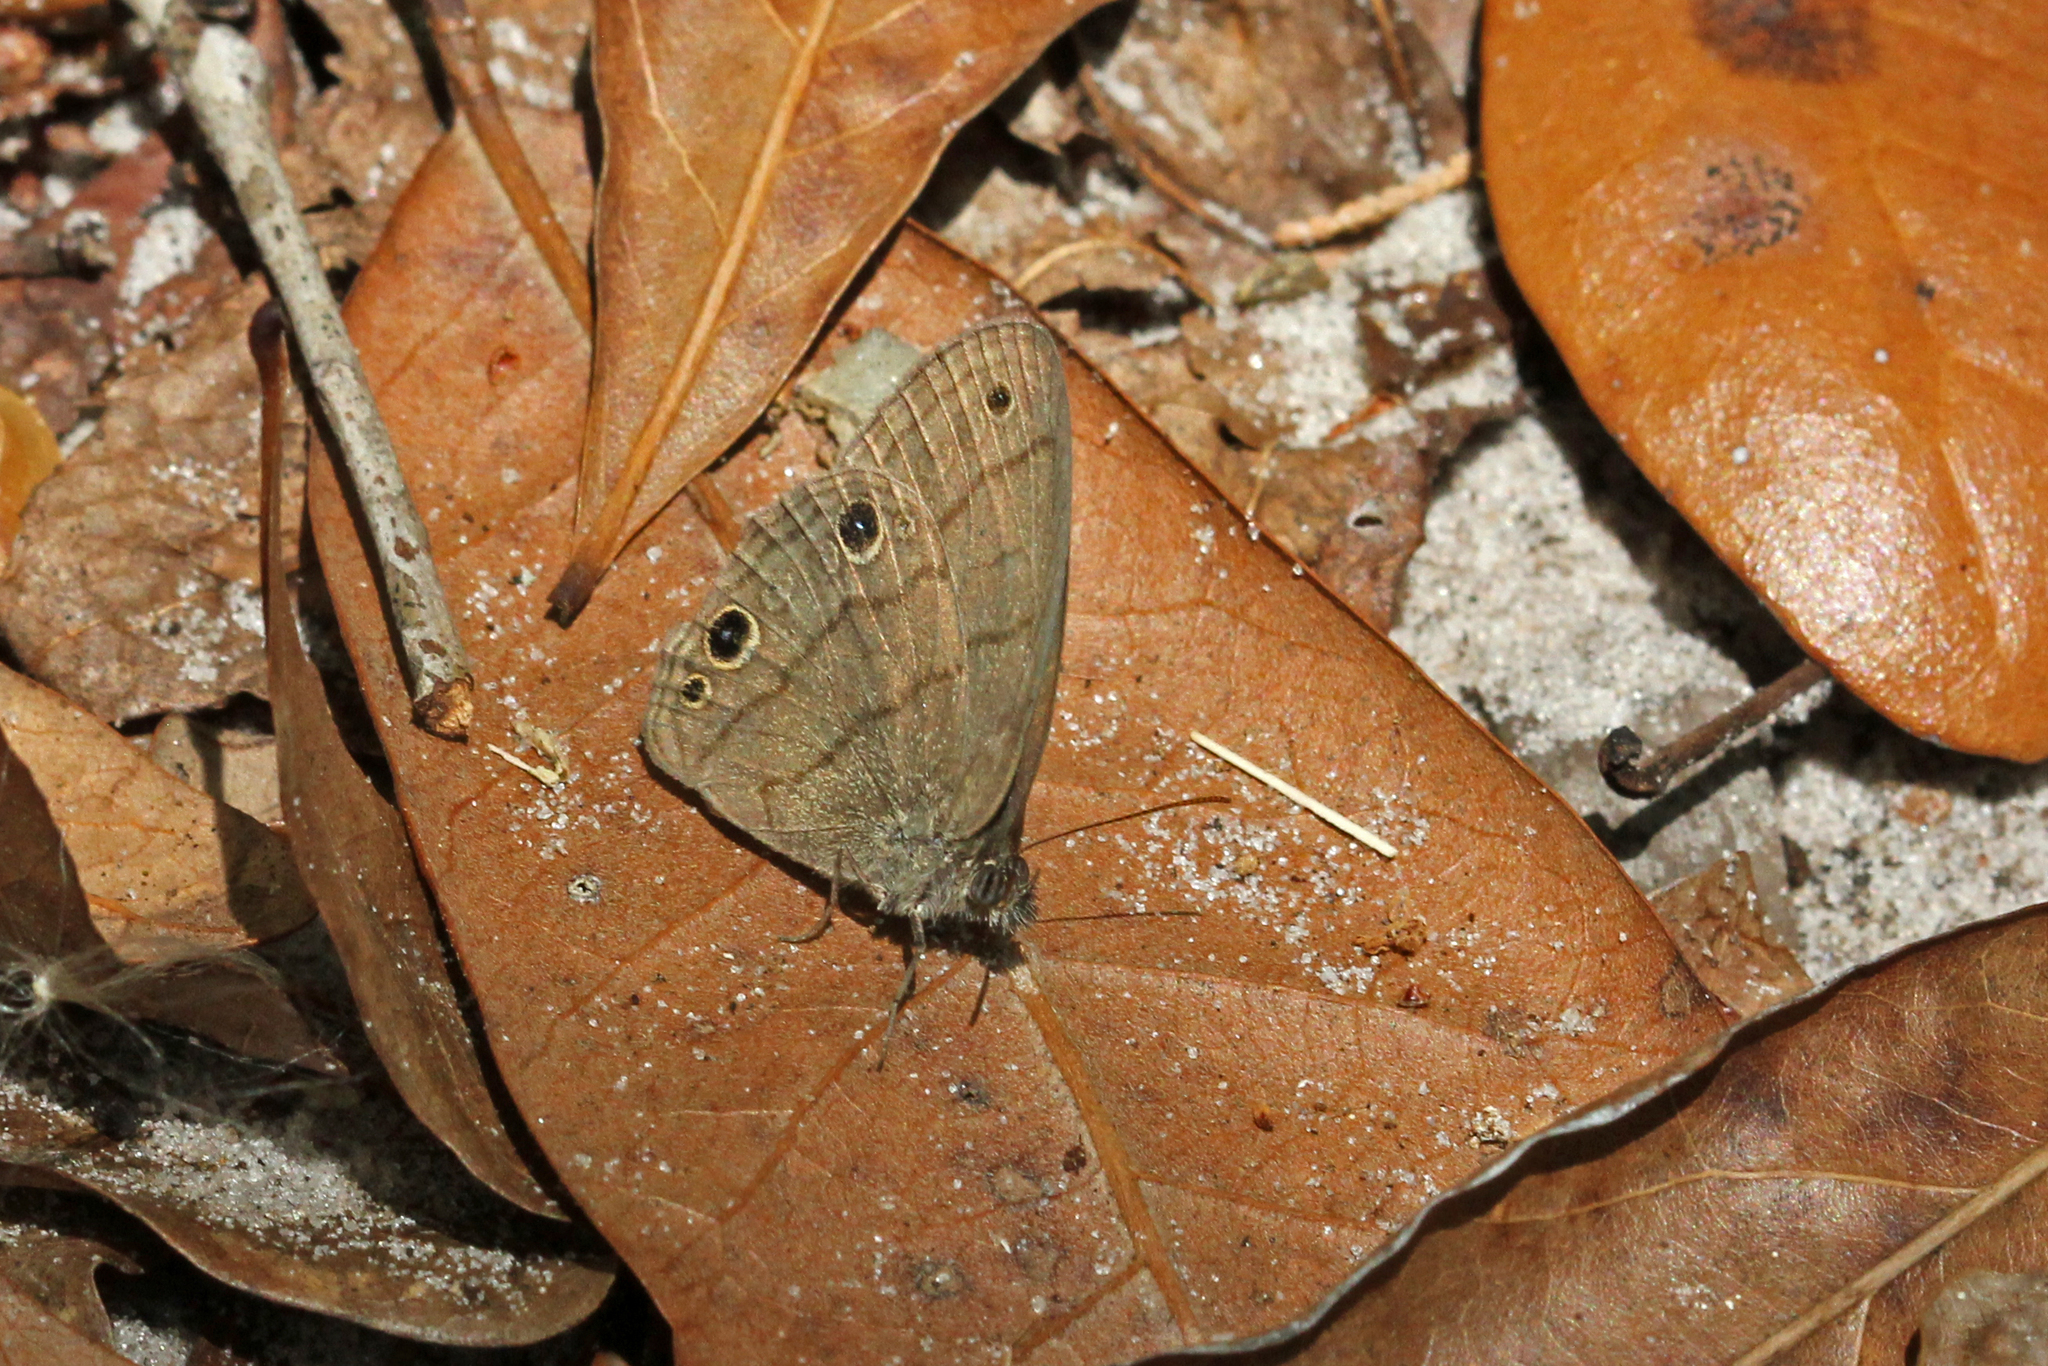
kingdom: Animalia
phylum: Arthropoda
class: Insecta
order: Lepidoptera
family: Nymphalidae
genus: Hermeuptychia
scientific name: Hermeuptychia hermes
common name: Hermes satyr
